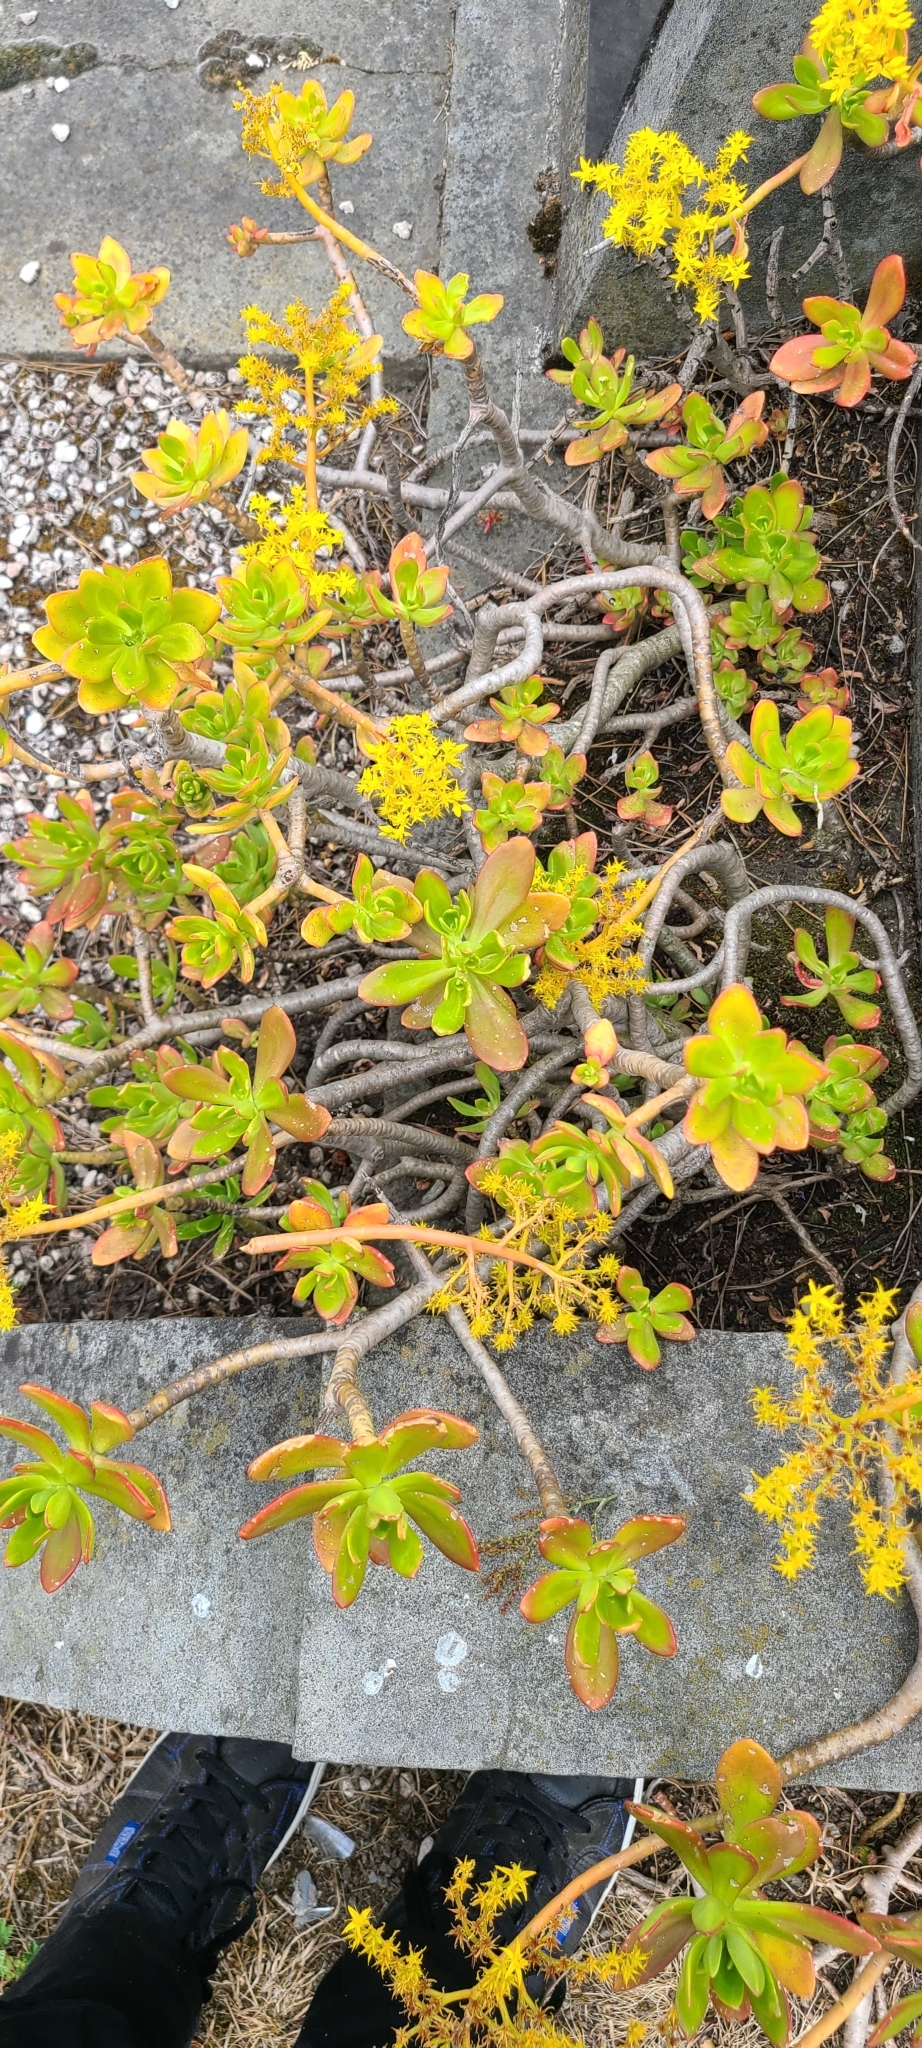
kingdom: Plantae
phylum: Tracheophyta
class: Magnoliopsida
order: Saxifragales
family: Crassulaceae
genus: Sedum
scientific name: Sedum praealtum
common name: Greater mexican-stonecrop
